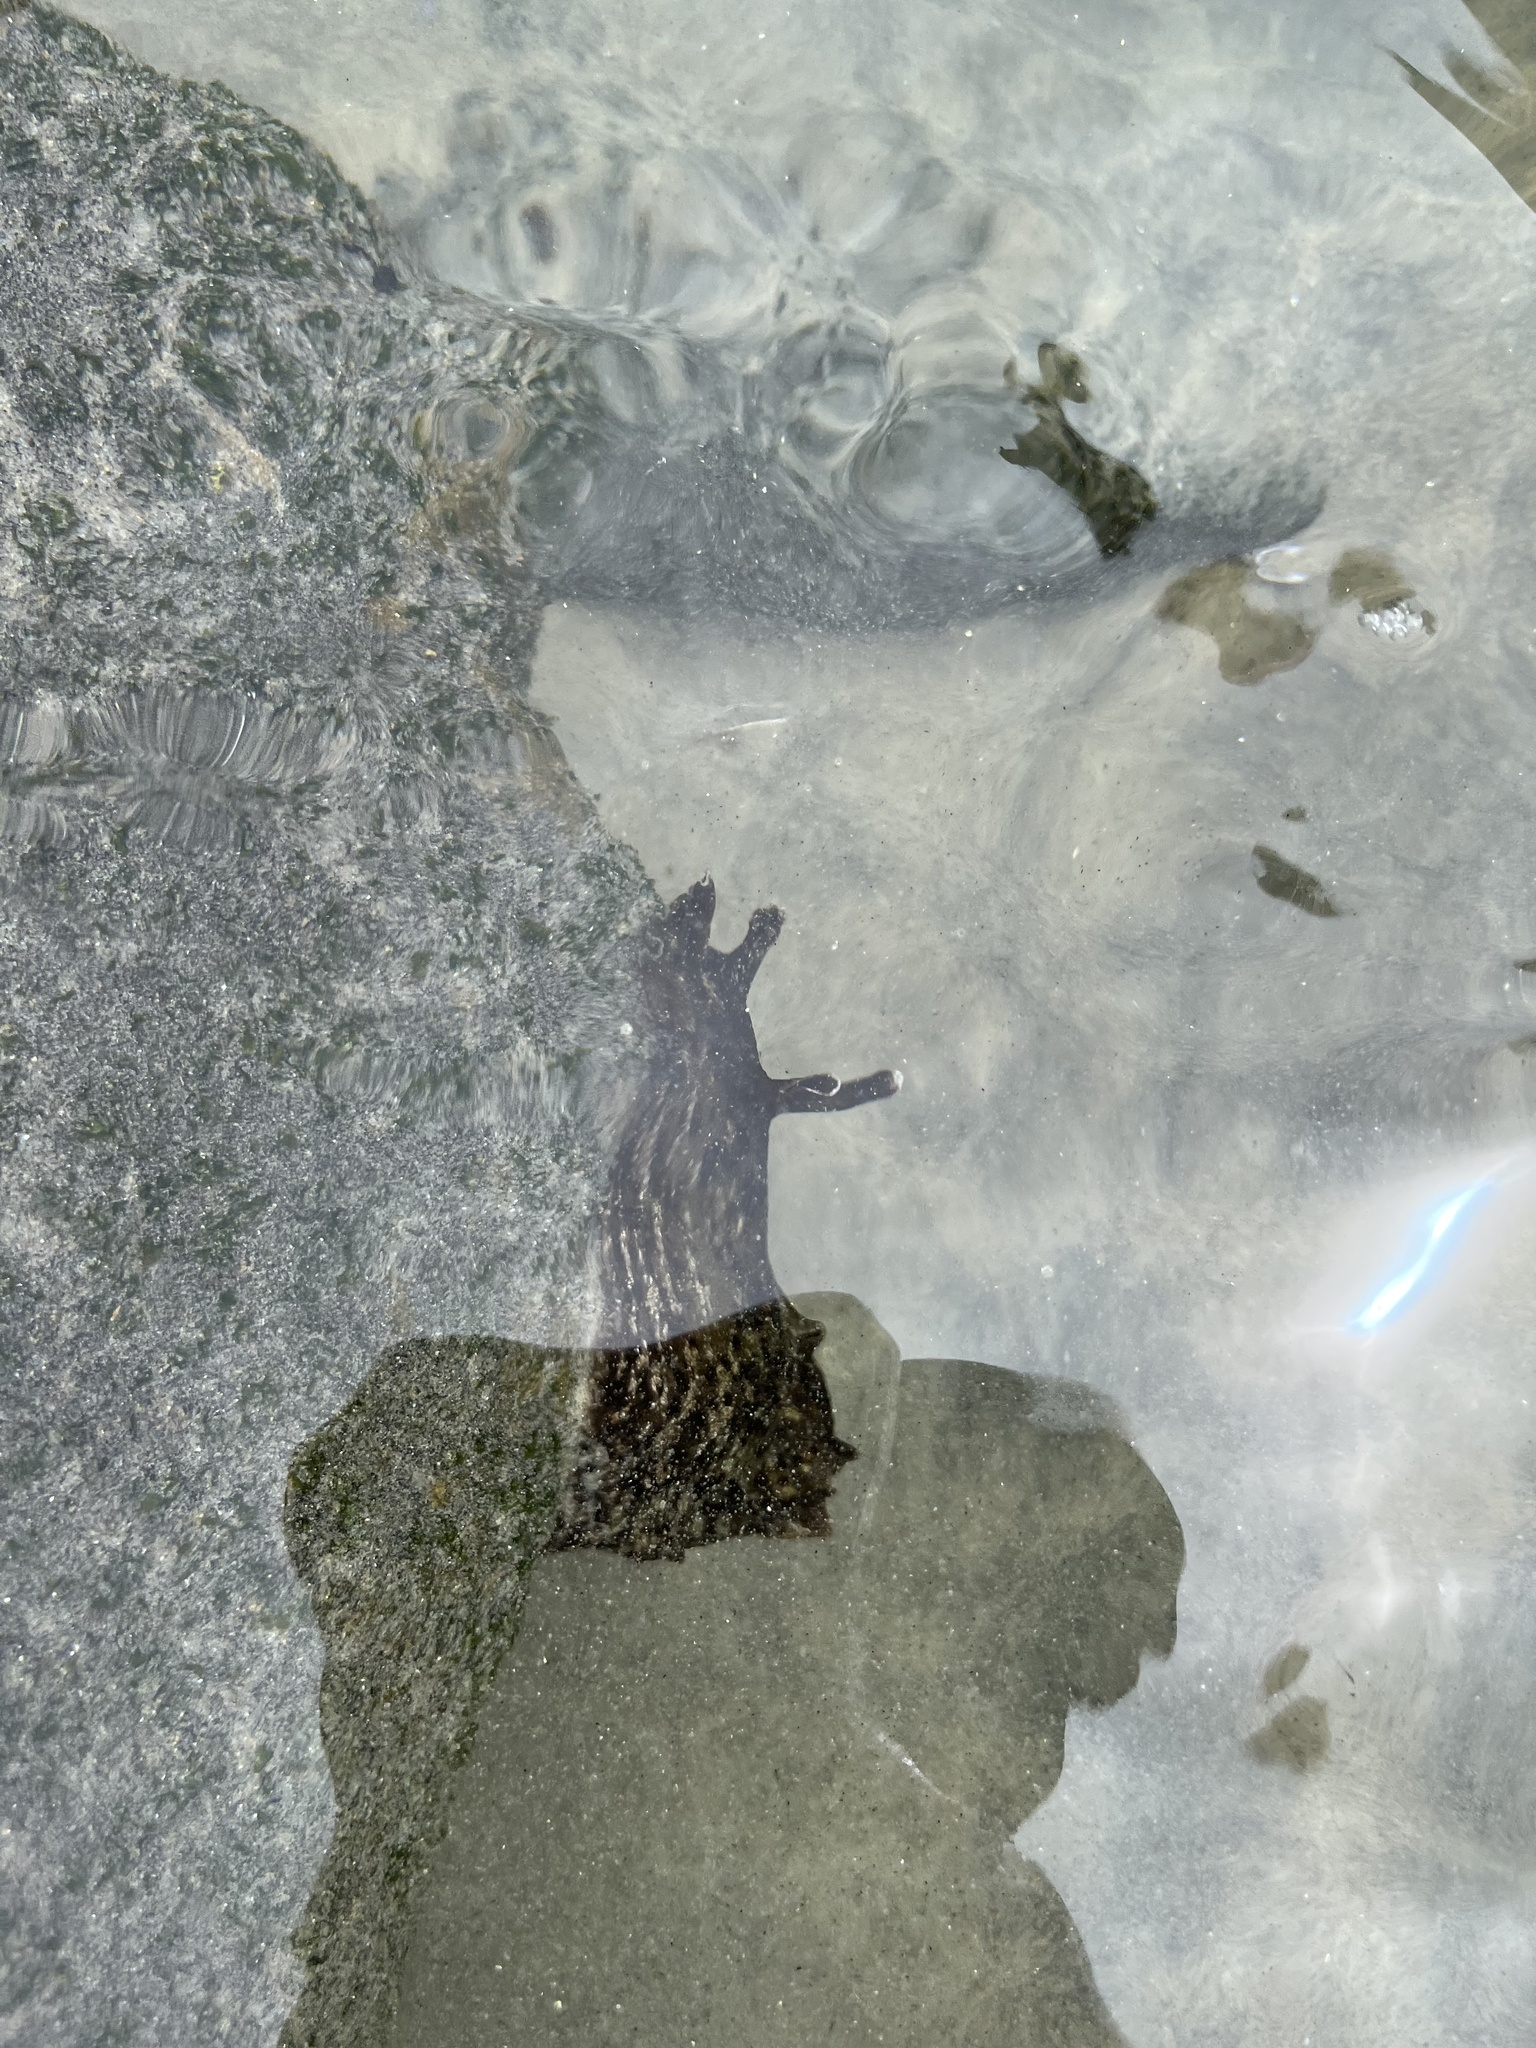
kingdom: Animalia
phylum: Mollusca
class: Gastropoda
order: Aplysiida
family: Aplysiidae
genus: Aplysia
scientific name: Aplysia californica
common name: California seahare
